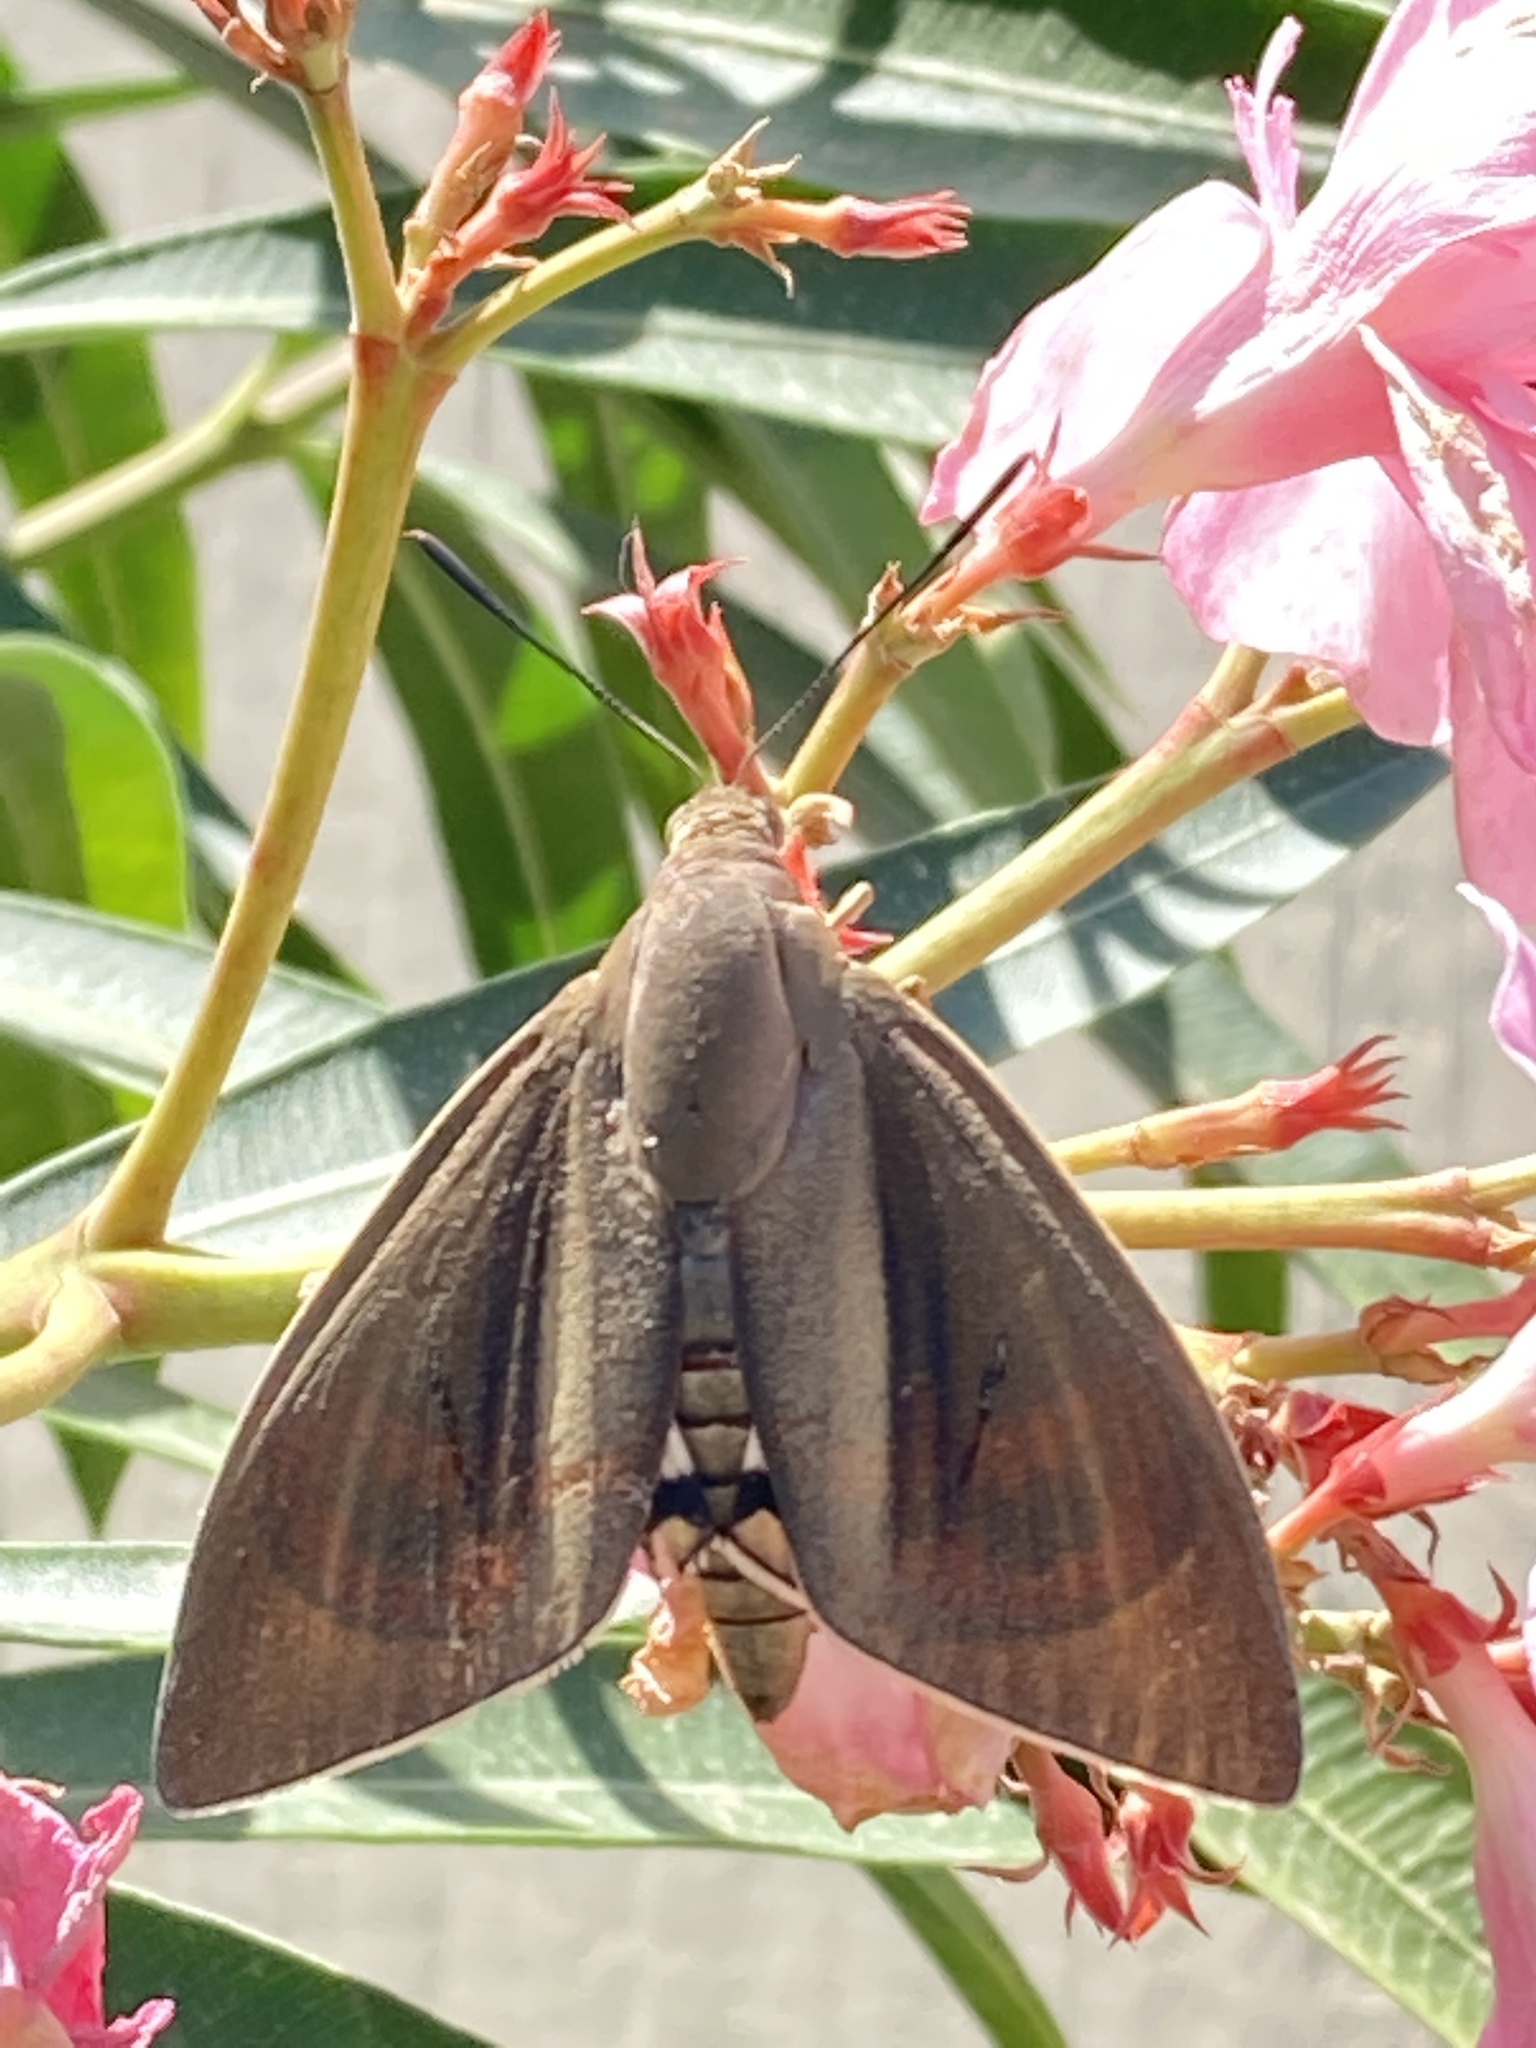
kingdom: Animalia
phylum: Arthropoda
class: Insecta
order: Lepidoptera
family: Castniidae
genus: Paysandisia
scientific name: Paysandisia archon
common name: Palm moth
